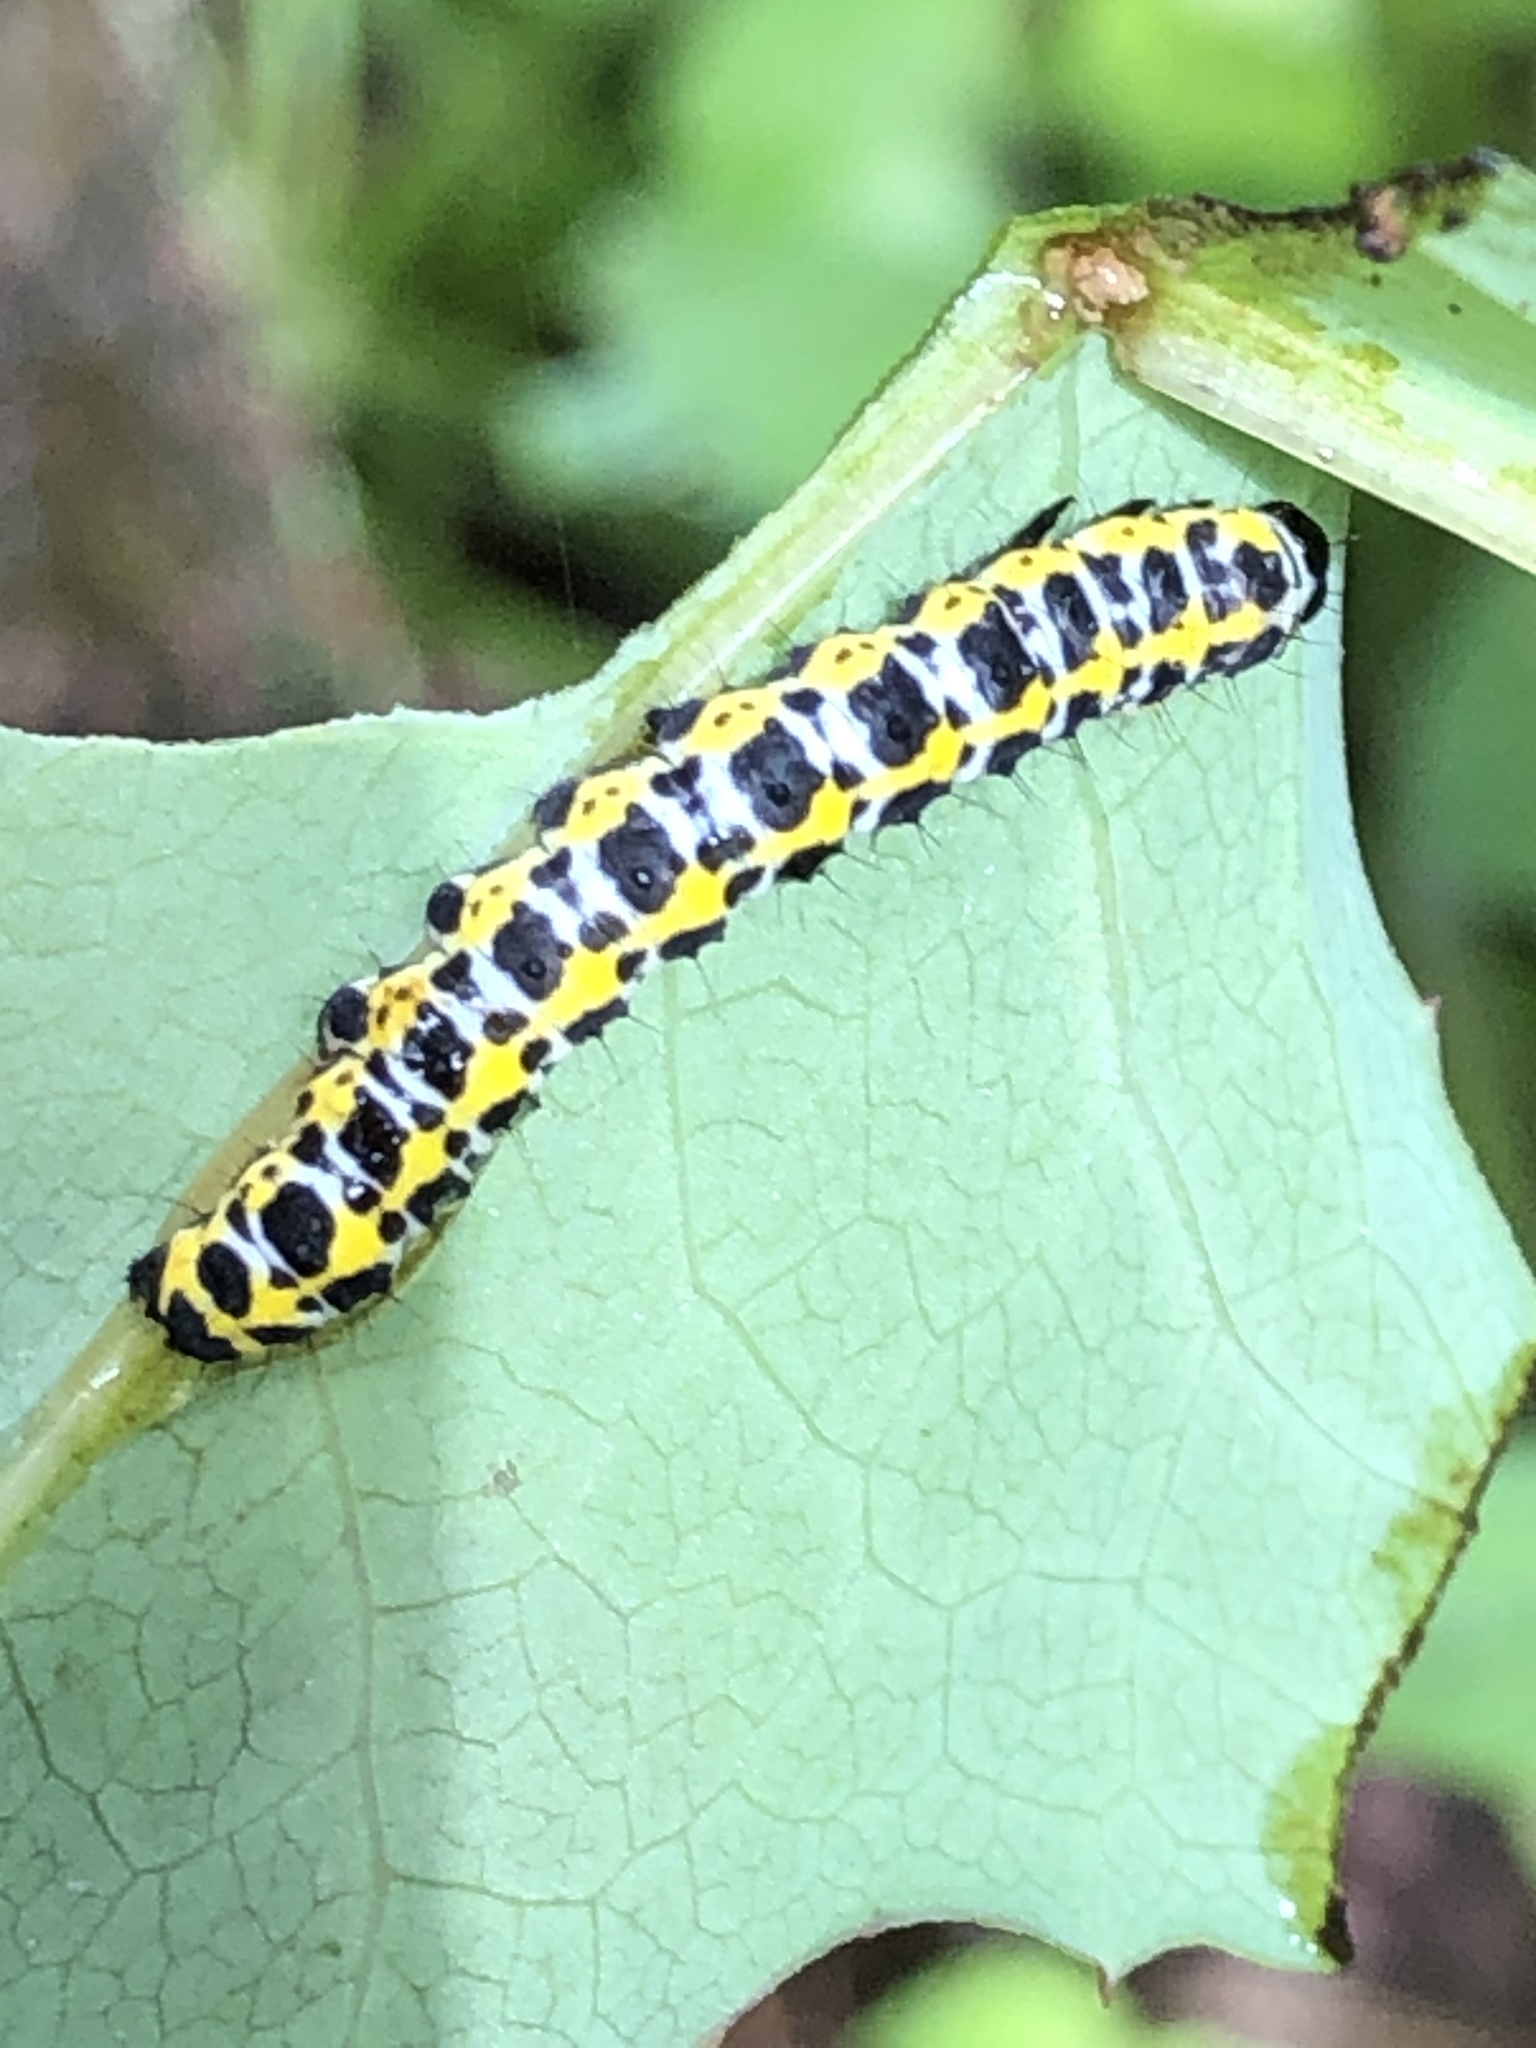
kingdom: Animalia
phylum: Arthropoda
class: Insecta
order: Lepidoptera
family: Noctuidae
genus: Cucullia
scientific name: Cucullia pustulata
